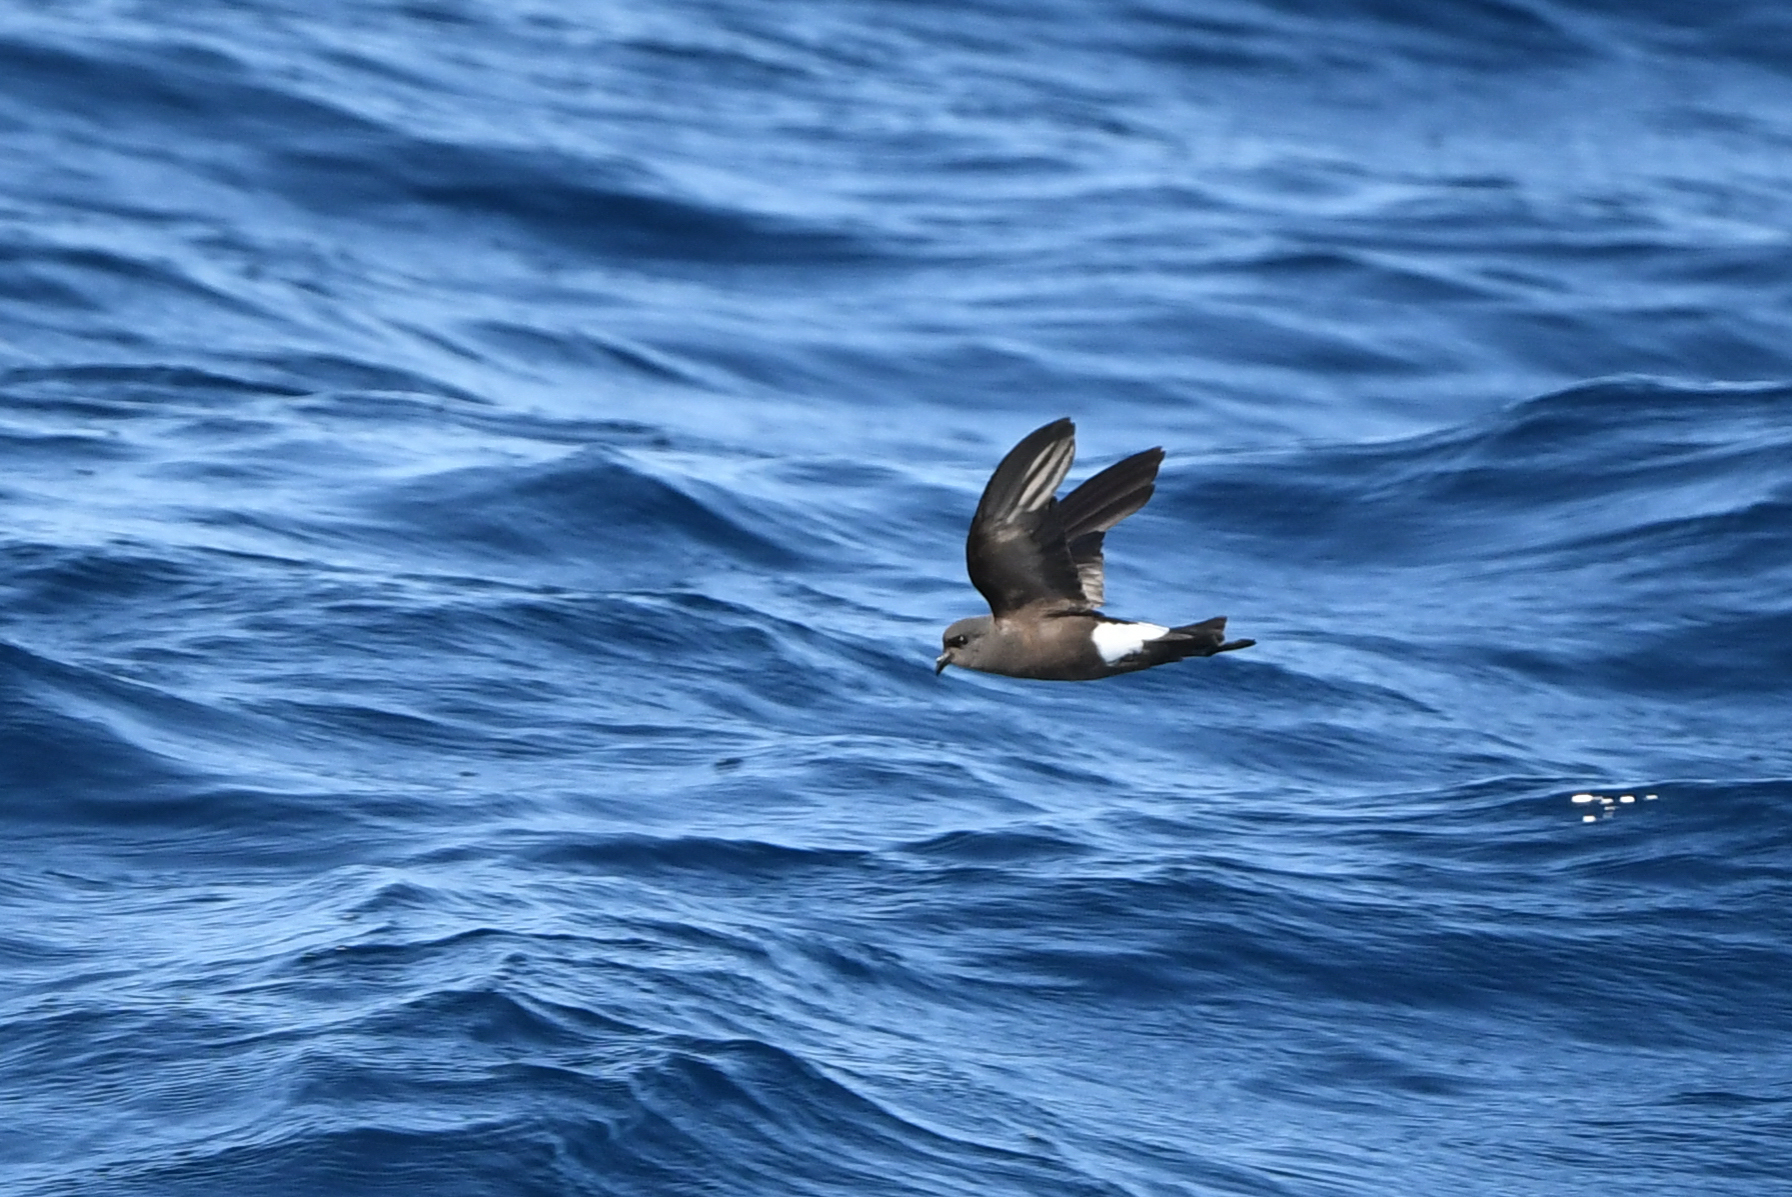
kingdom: Animalia
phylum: Chordata
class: Aves
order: Procellariiformes
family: Hydrobatidae
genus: Oceanites
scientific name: Oceanites oceanicus
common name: Wilson's storm petrel
